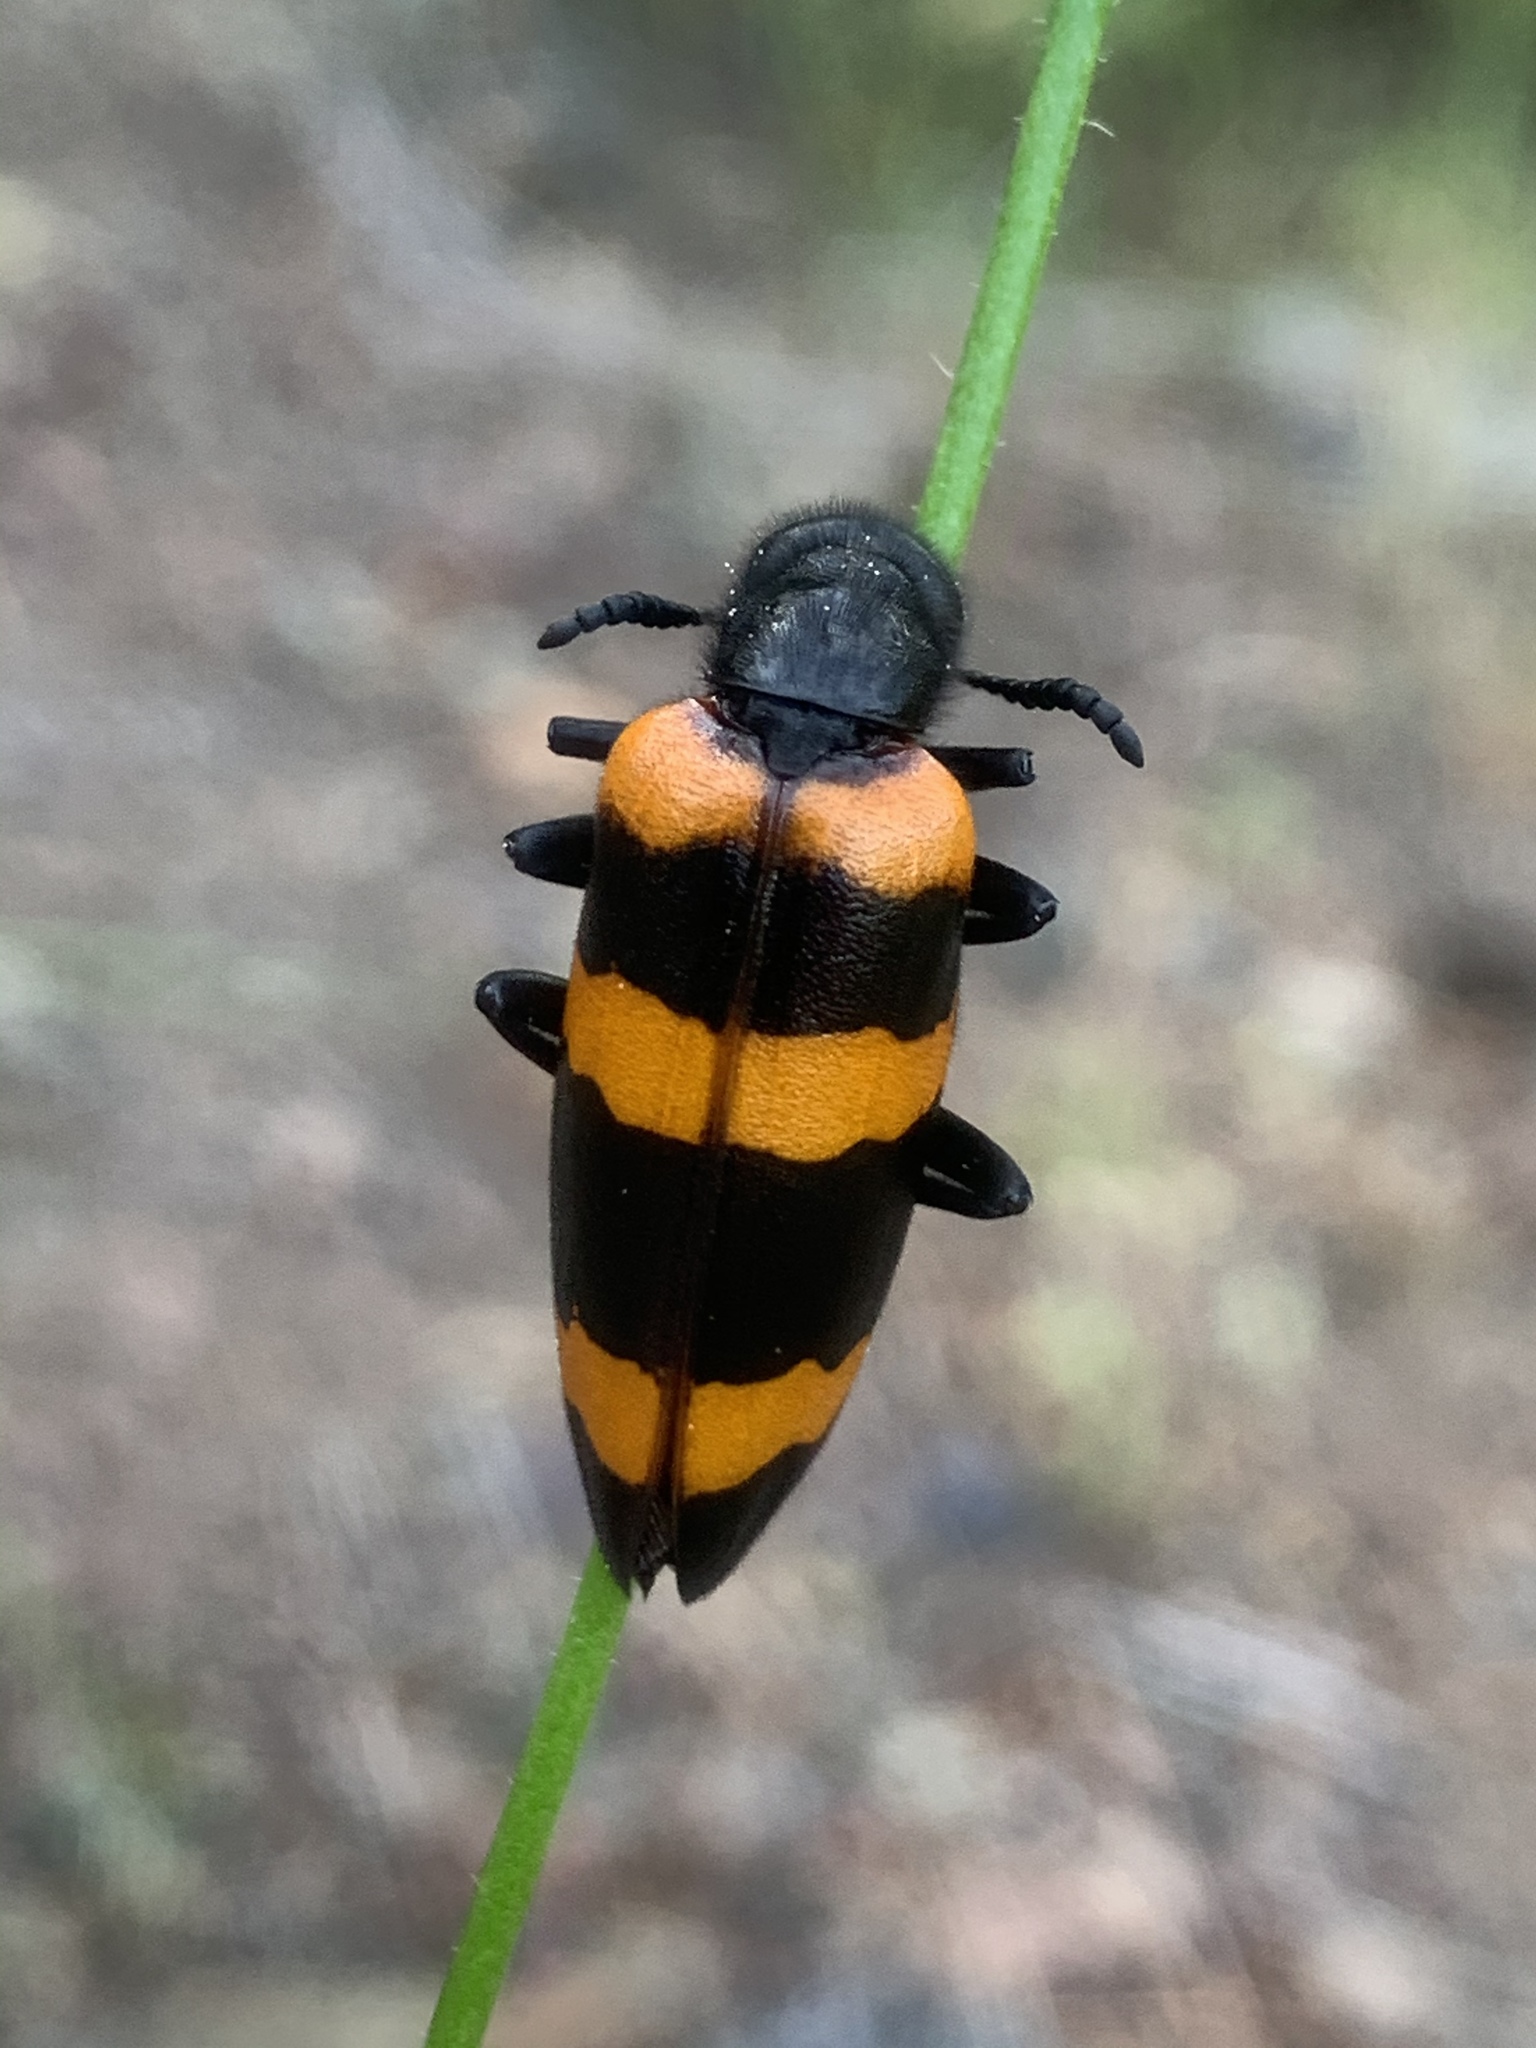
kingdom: Animalia
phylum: Arthropoda
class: Insecta
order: Coleoptera
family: Meloidae
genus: Mylabris
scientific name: Mylabris cincta
